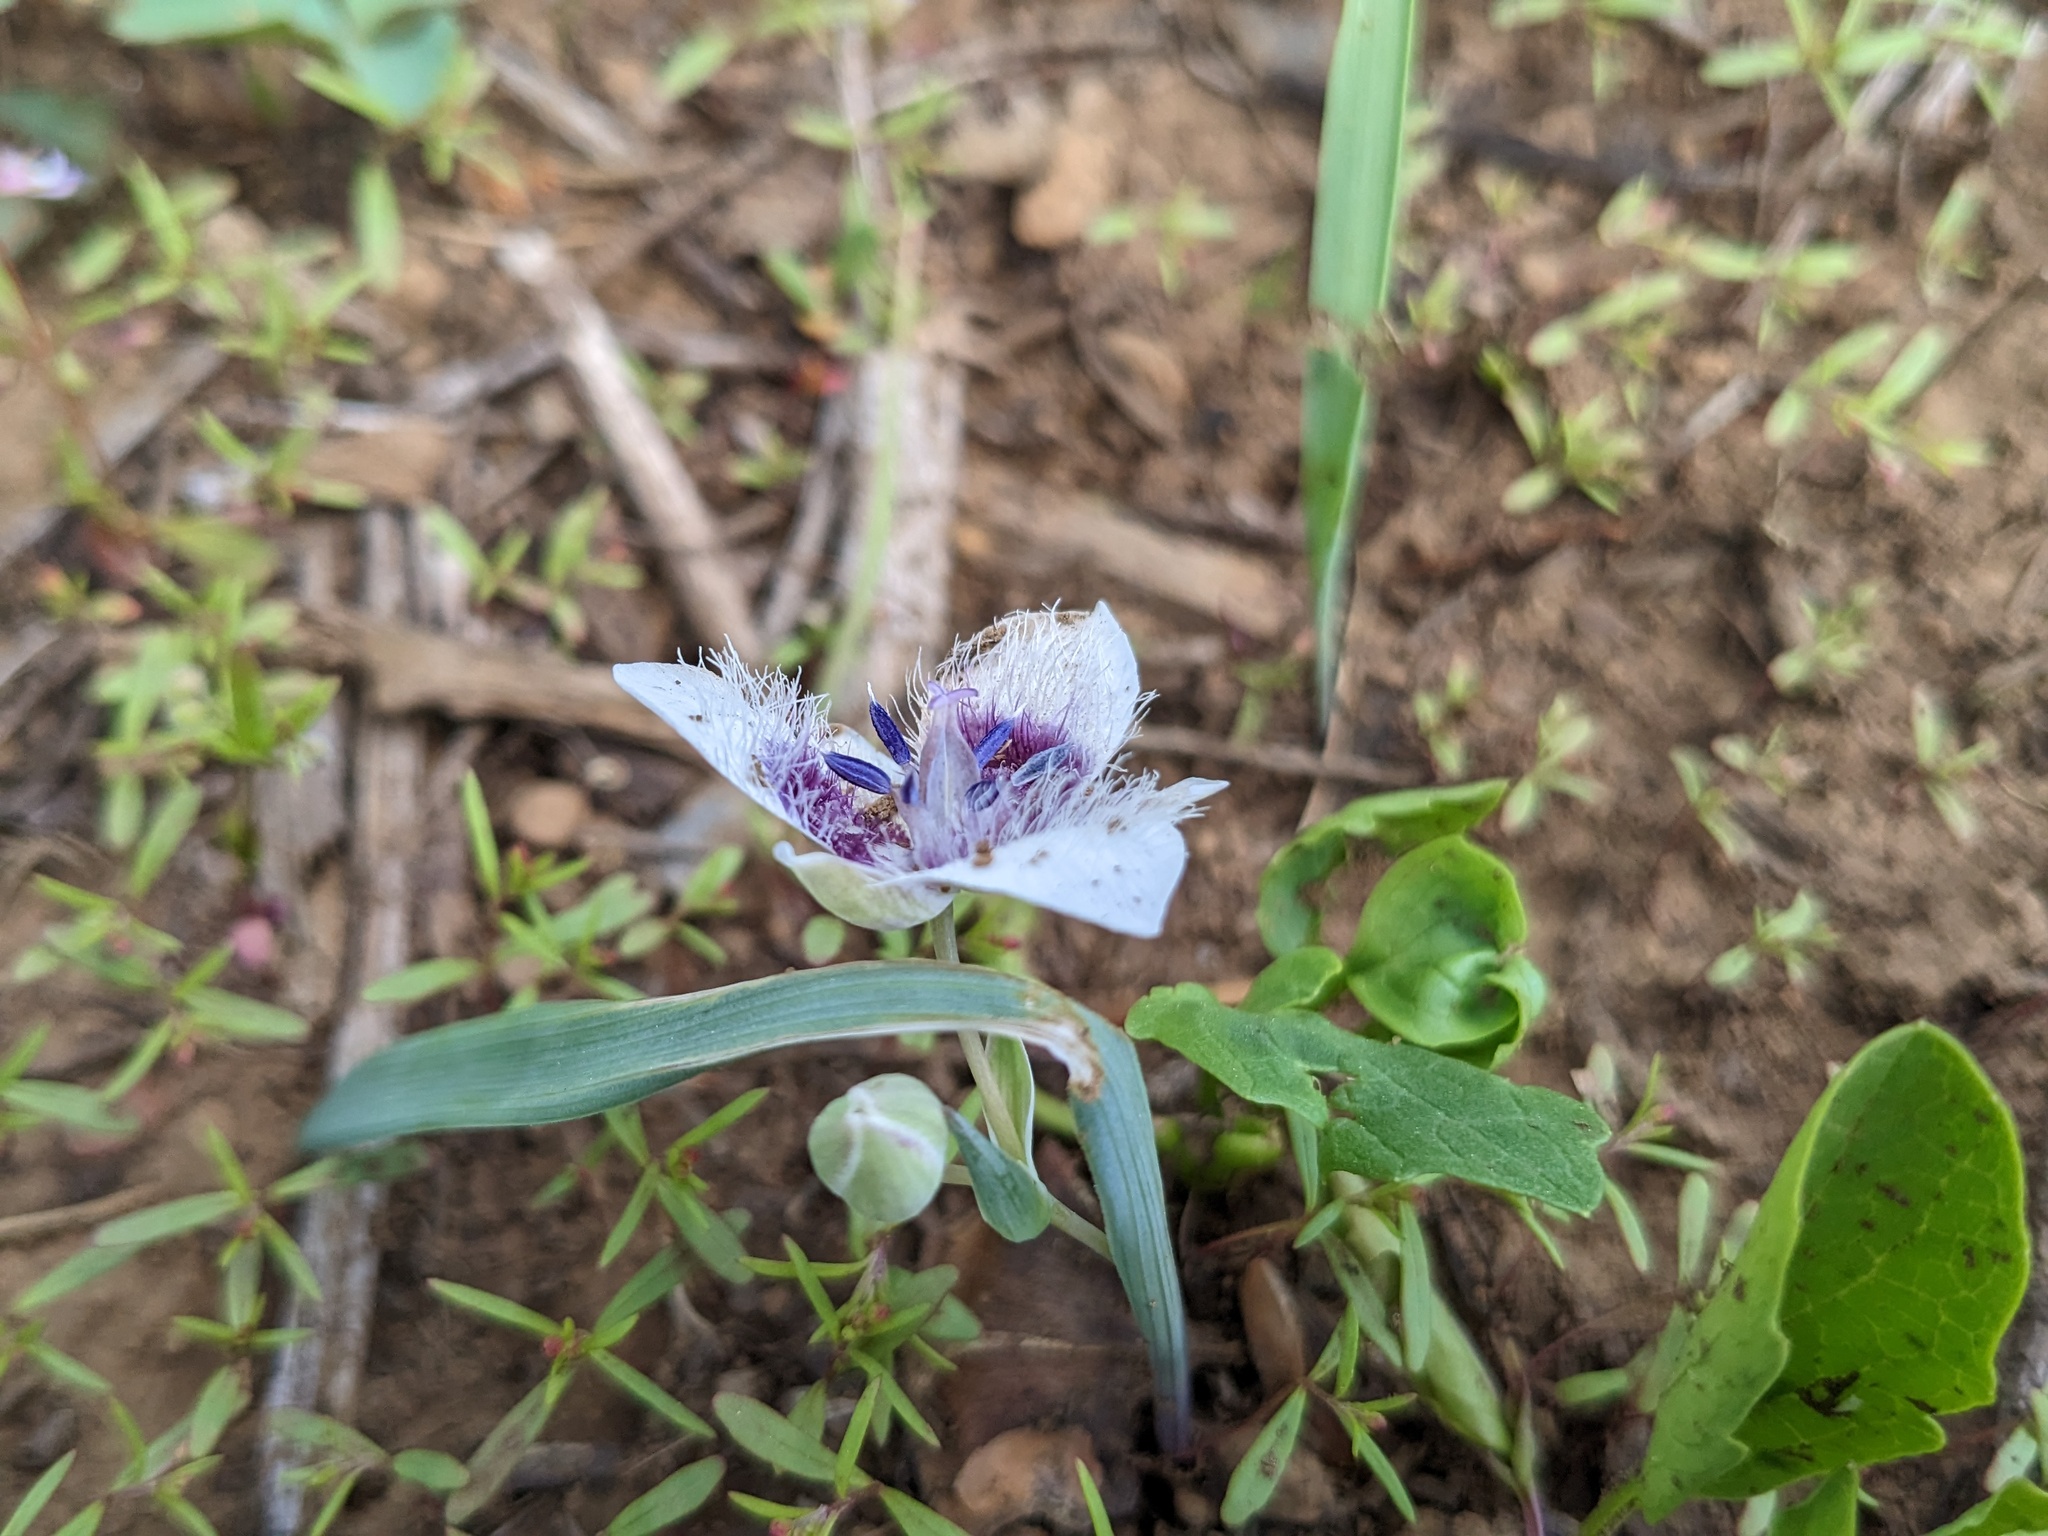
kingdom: Plantae
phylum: Tracheophyta
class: Liliopsida
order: Liliales
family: Liliaceae
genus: Calochortus
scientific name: Calochortus elegans
